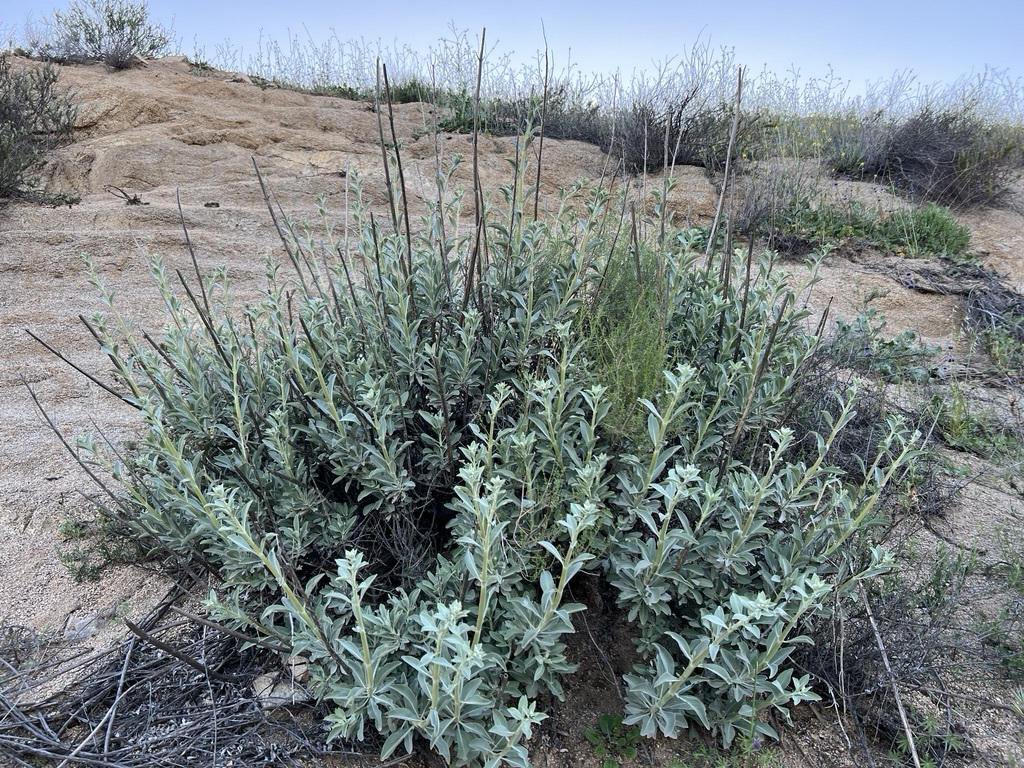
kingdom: Plantae
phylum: Tracheophyta
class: Magnoliopsida
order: Lamiales
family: Lamiaceae
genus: Salvia
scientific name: Salvia apiana
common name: White sage
